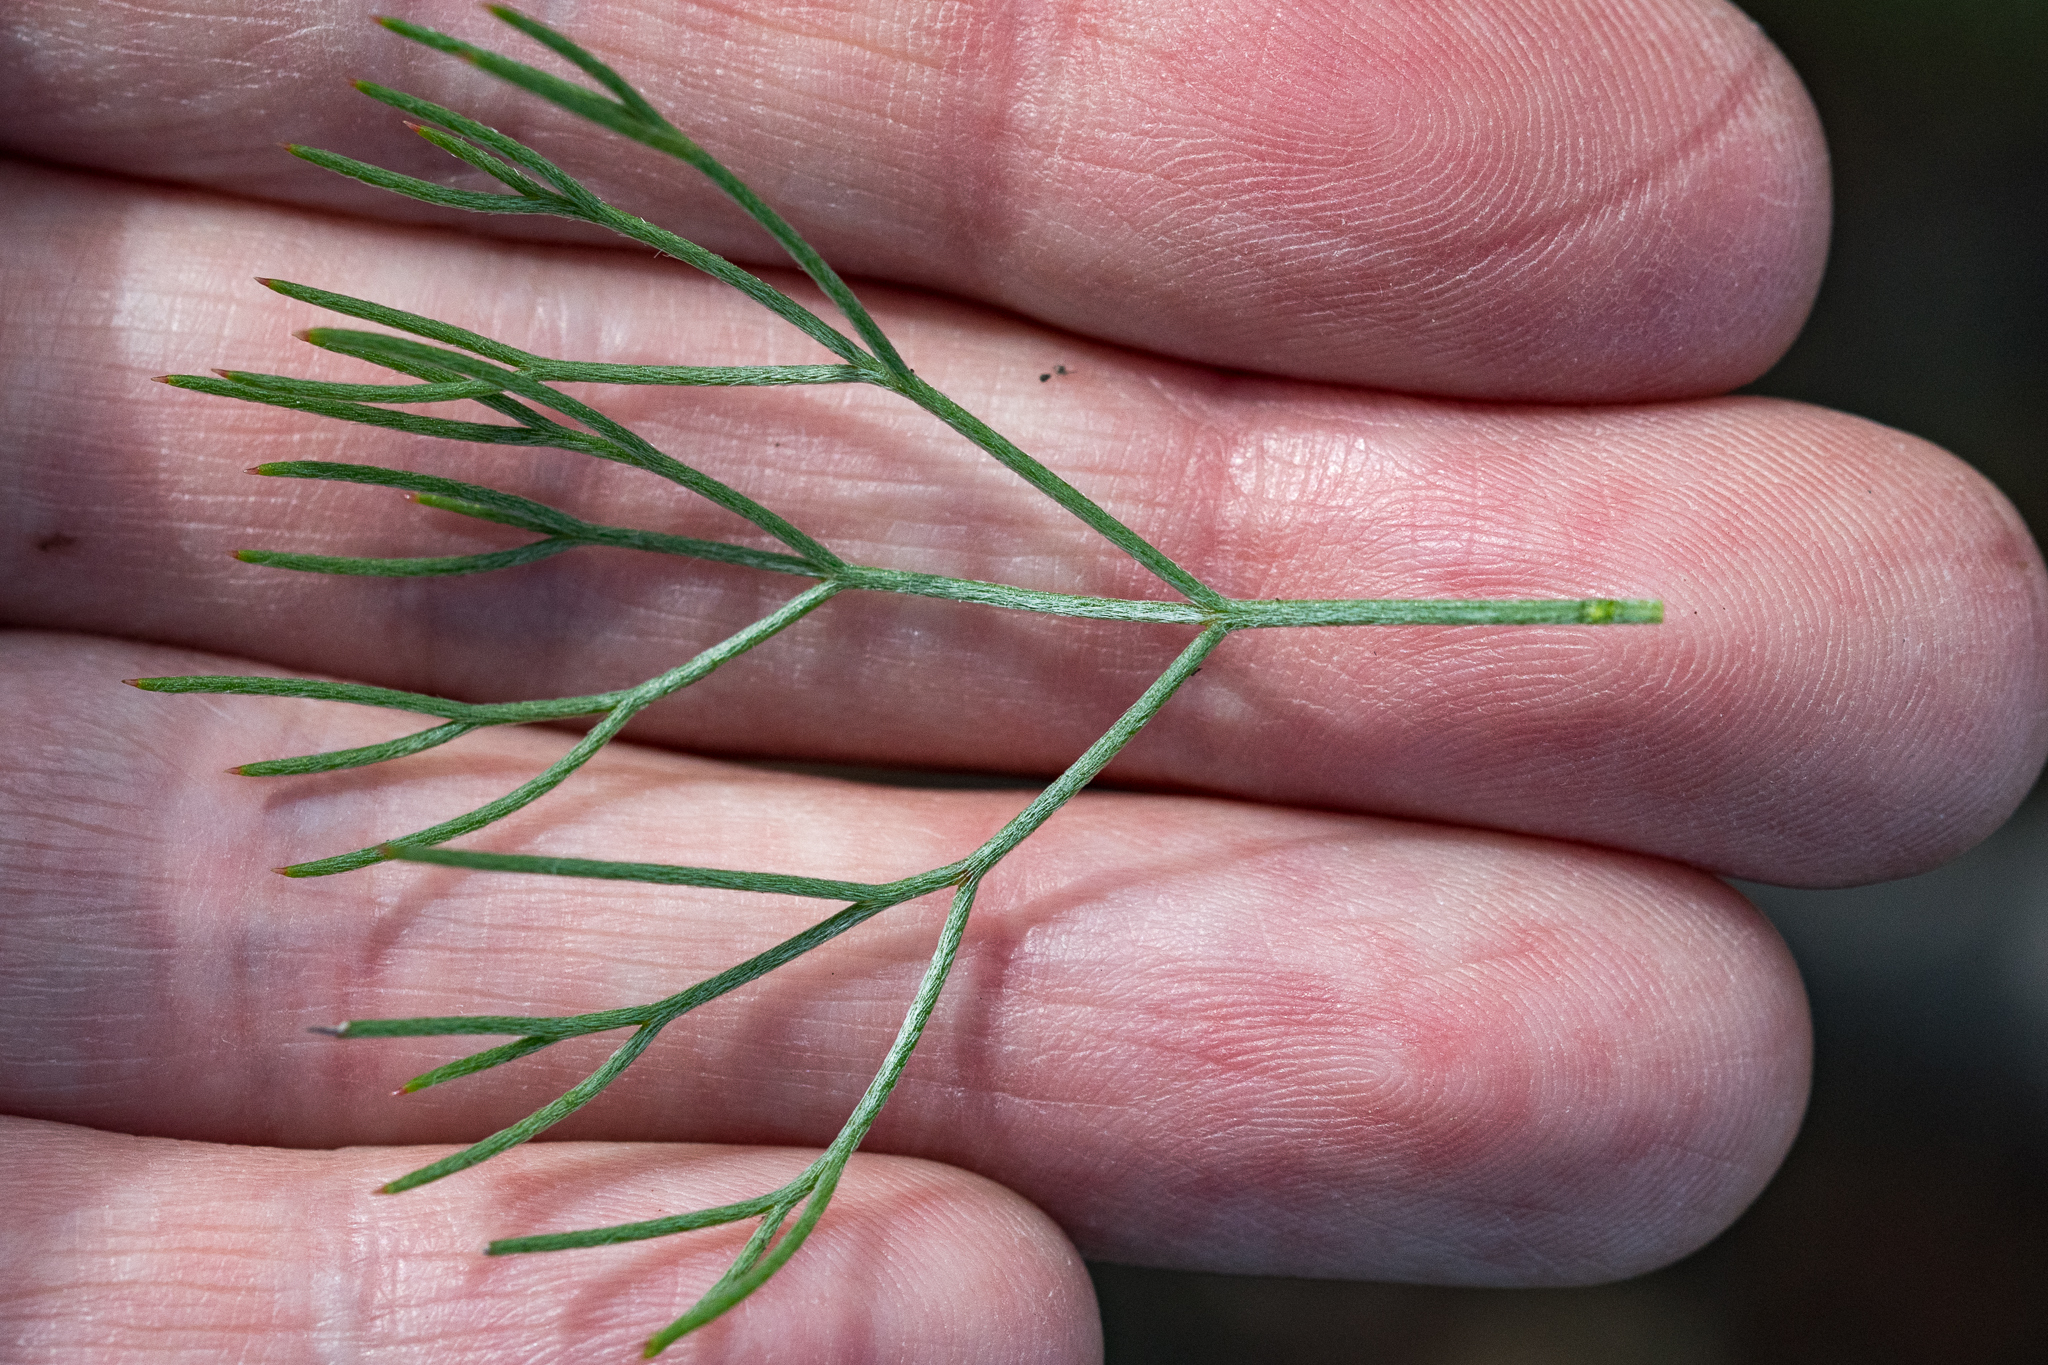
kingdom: Plantae
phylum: Tracheophyta
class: Magnoliopsida
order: Proteales
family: Proteaceae
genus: Serruria
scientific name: Serruria ascendens
